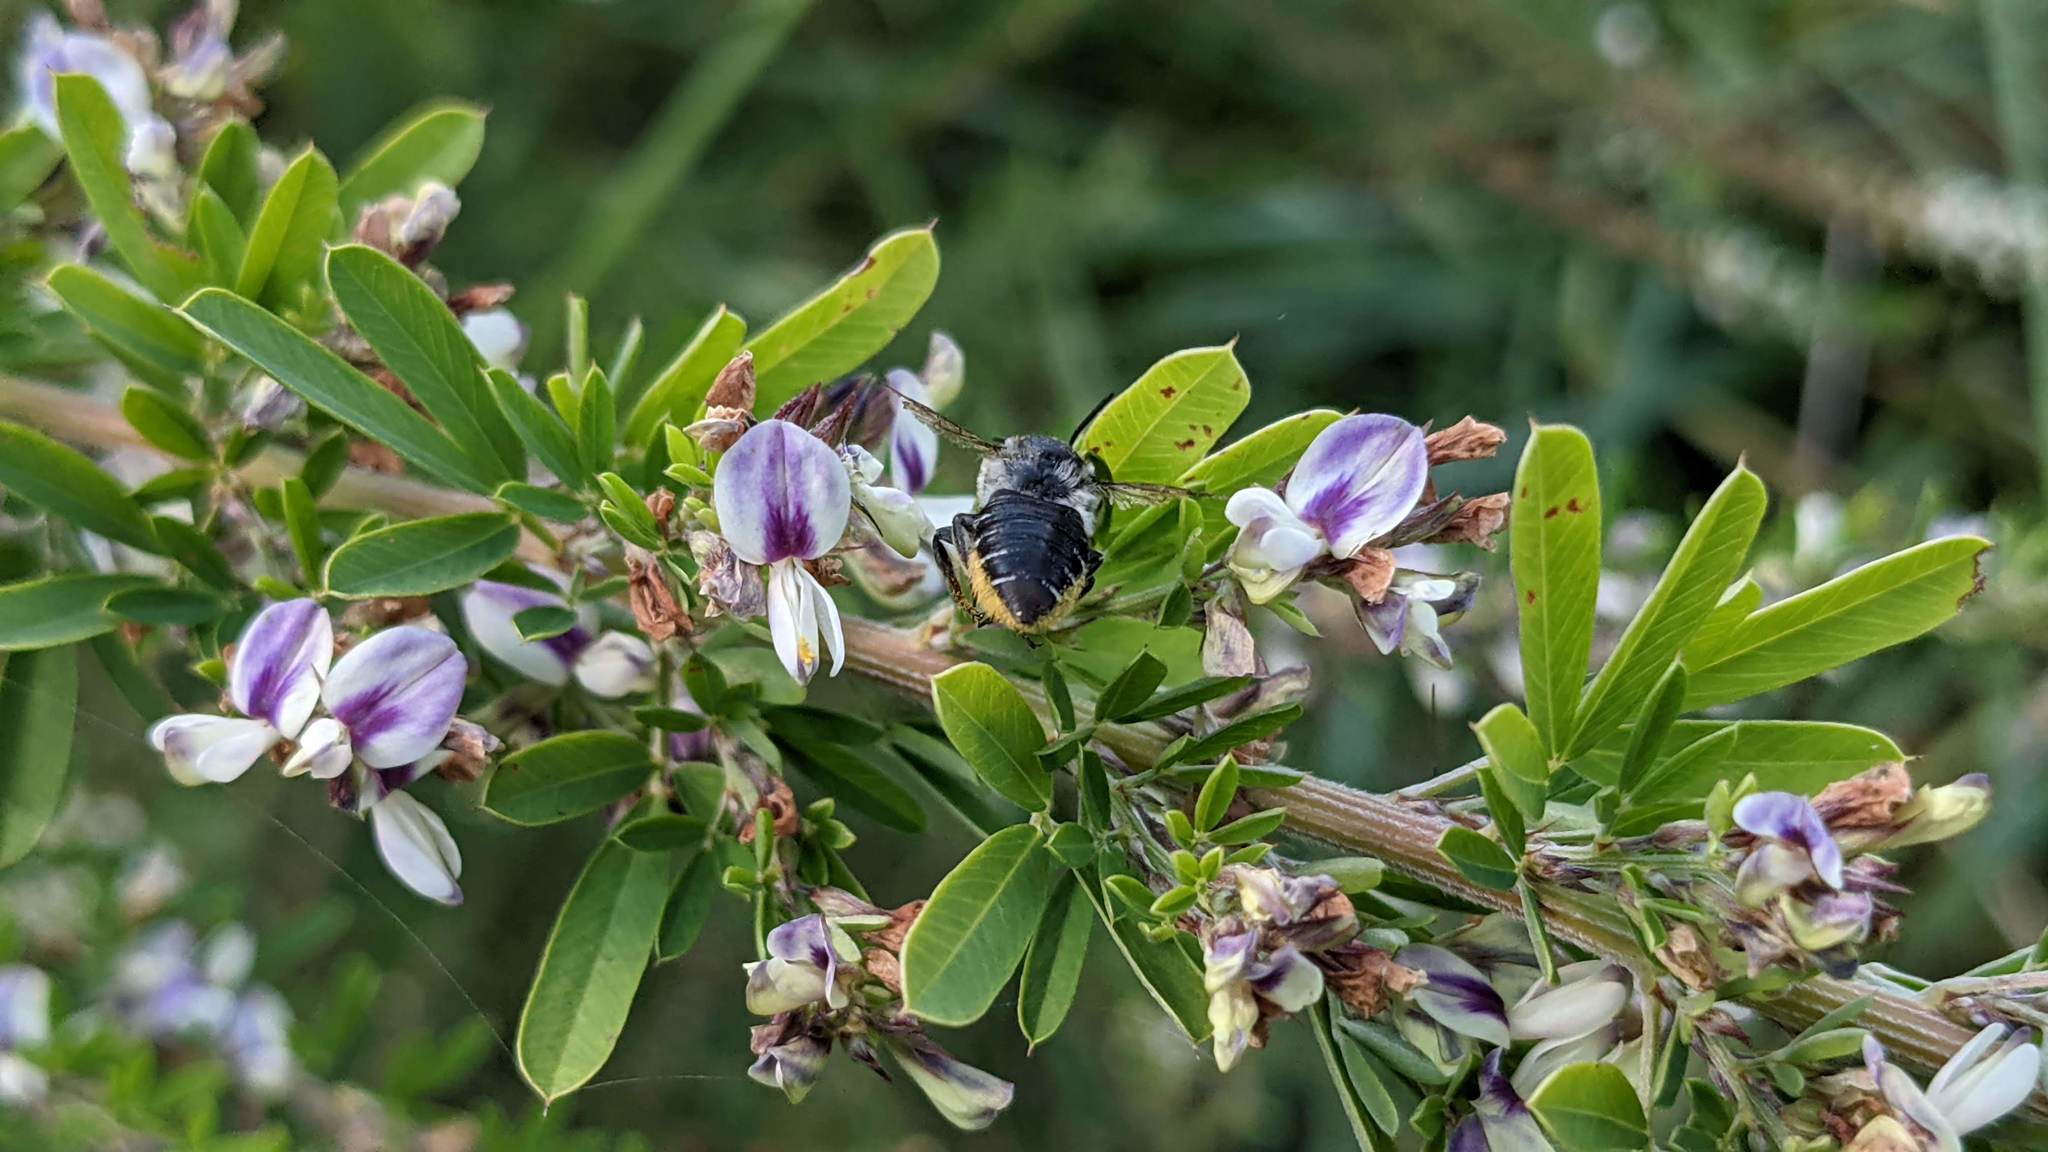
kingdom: Plantae
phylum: Tracheophyta
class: Magnoliopsida
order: Fabales
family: Fabaceae
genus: Lespedeza
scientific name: Lespedeza cuneata
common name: Chinese bush-clover
